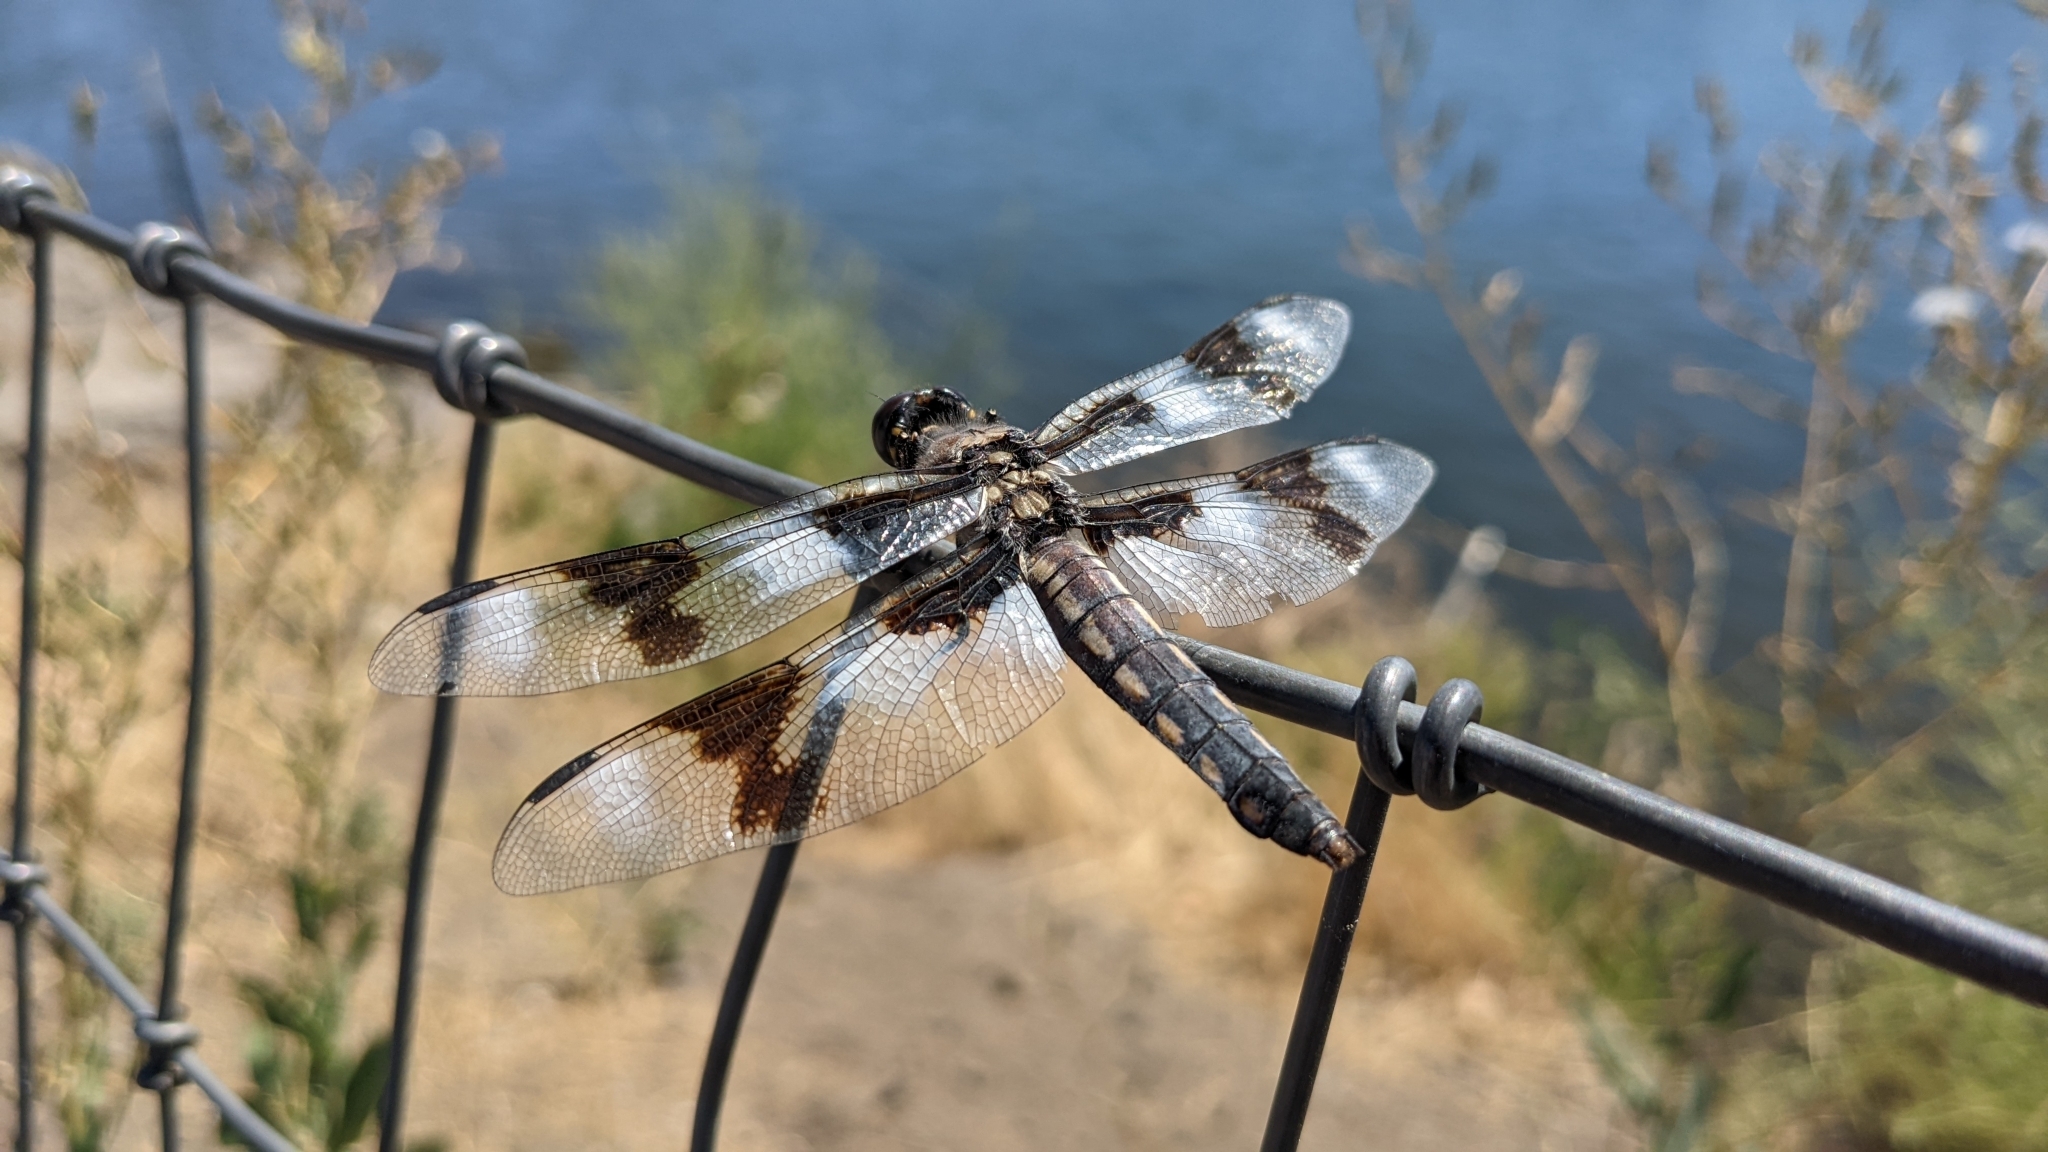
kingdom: Animalia
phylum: Arthropoda
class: Insecta
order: Odonata
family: Libellulidae
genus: Libellula
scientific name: Libellula forensis
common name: Eight-spotted skimmer
